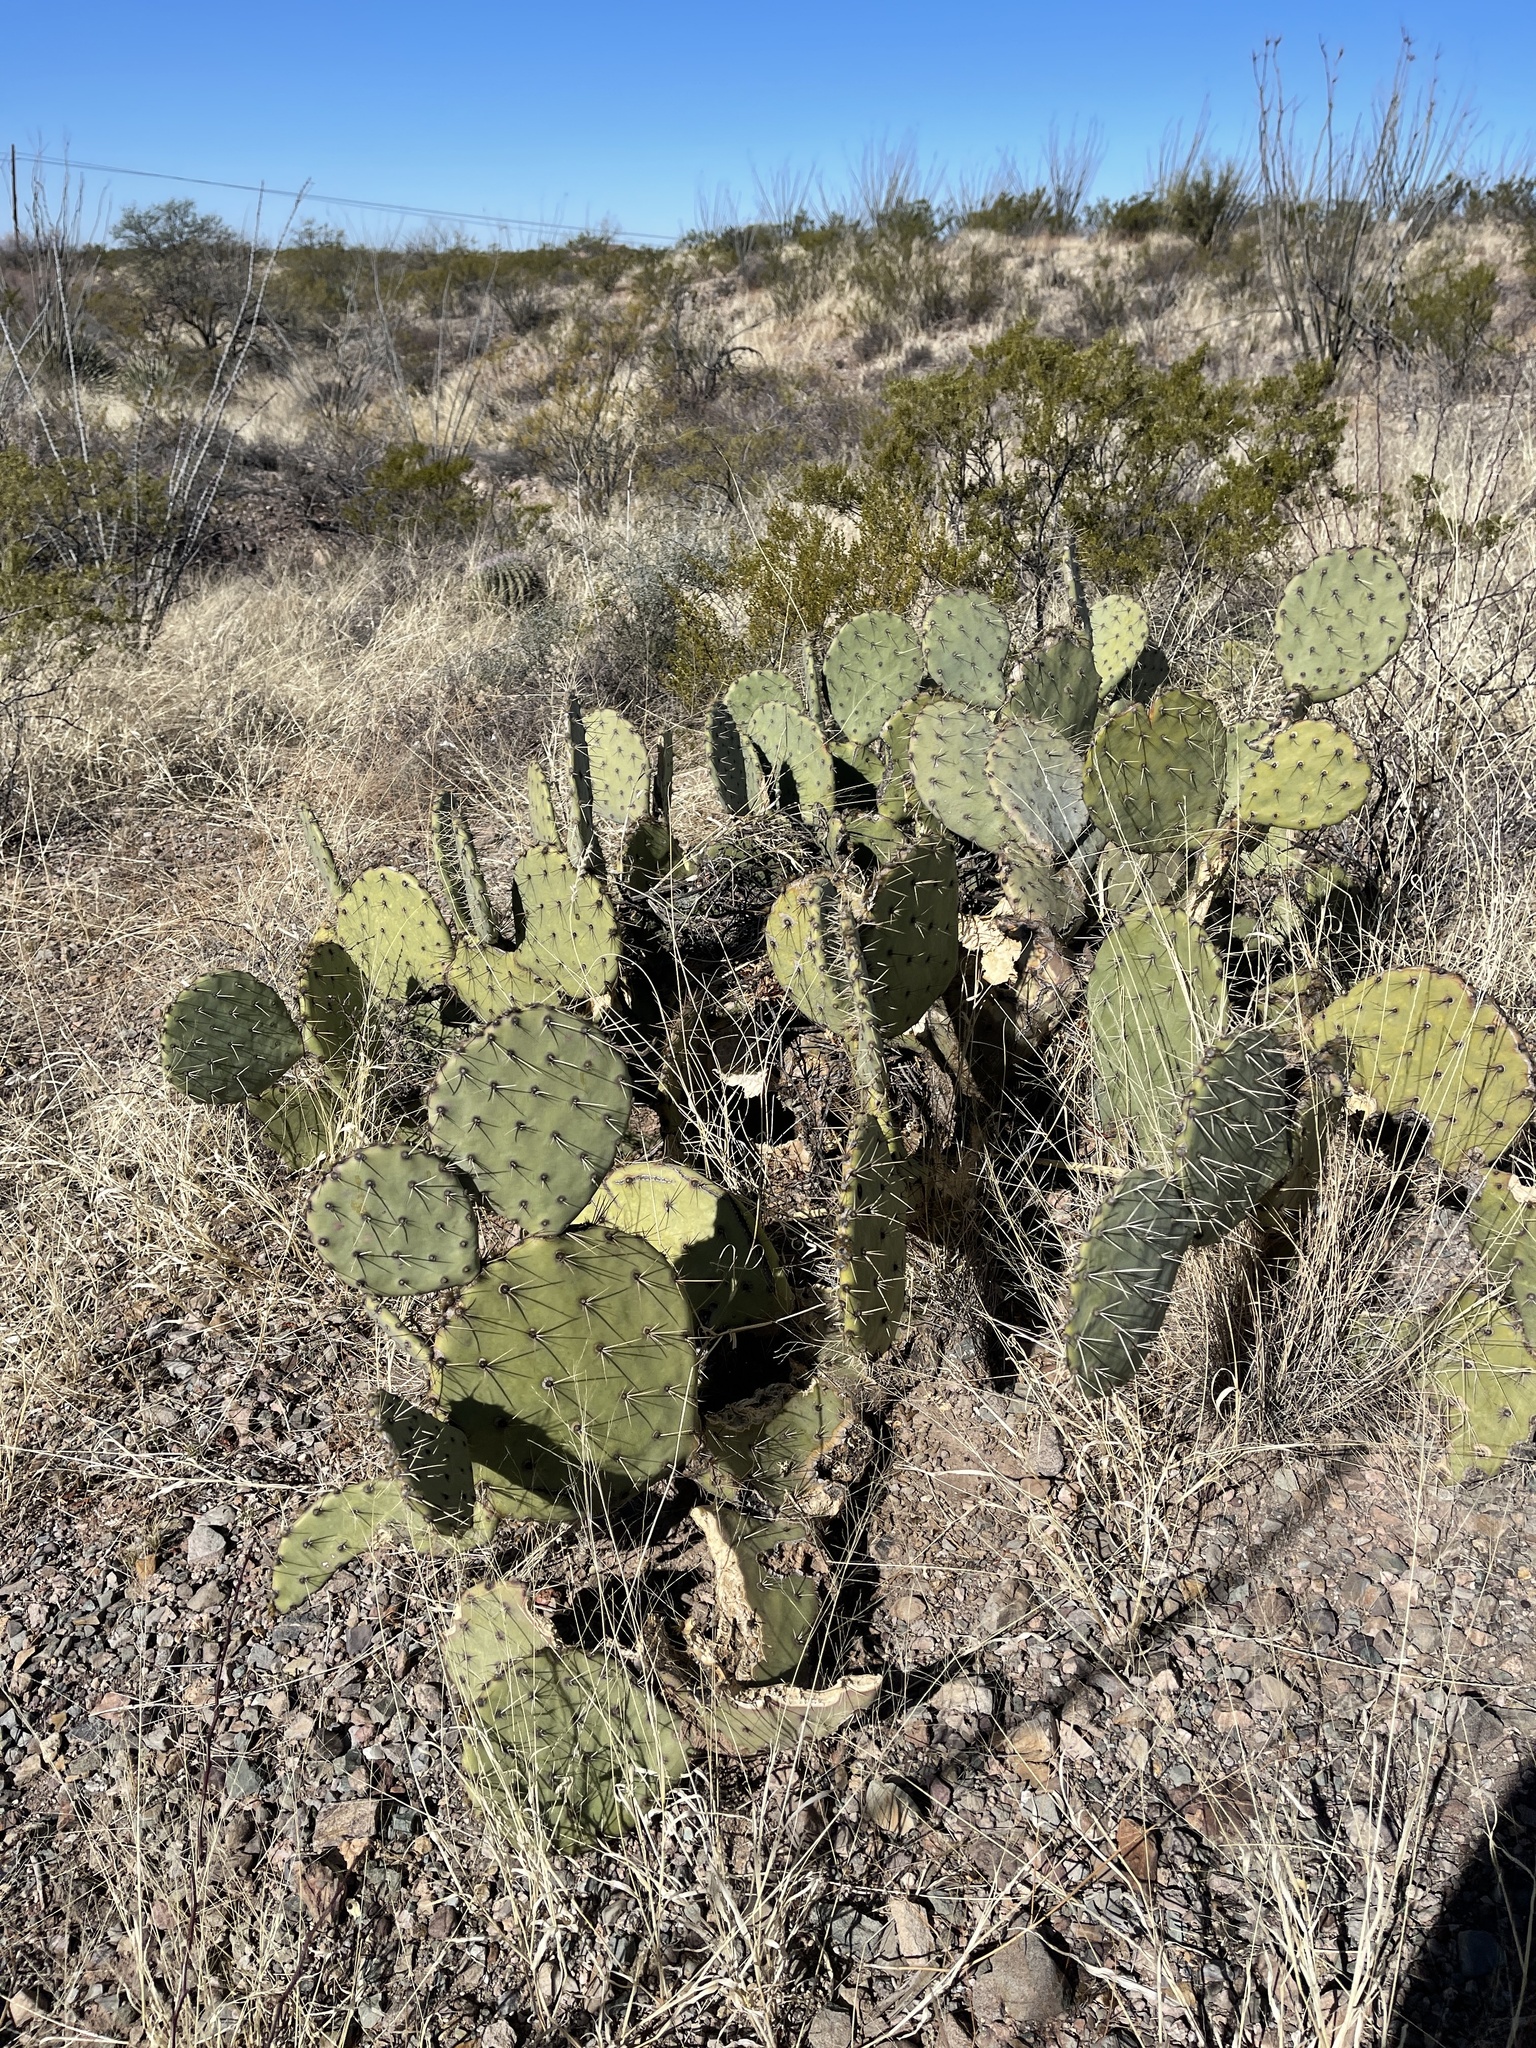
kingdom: Plantae
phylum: Tracheophyta
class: Magnoliopsida
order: Caryophyllales
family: Cactaceae
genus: Opuntia
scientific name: Opuntia engelmannii
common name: Cactus-apple
